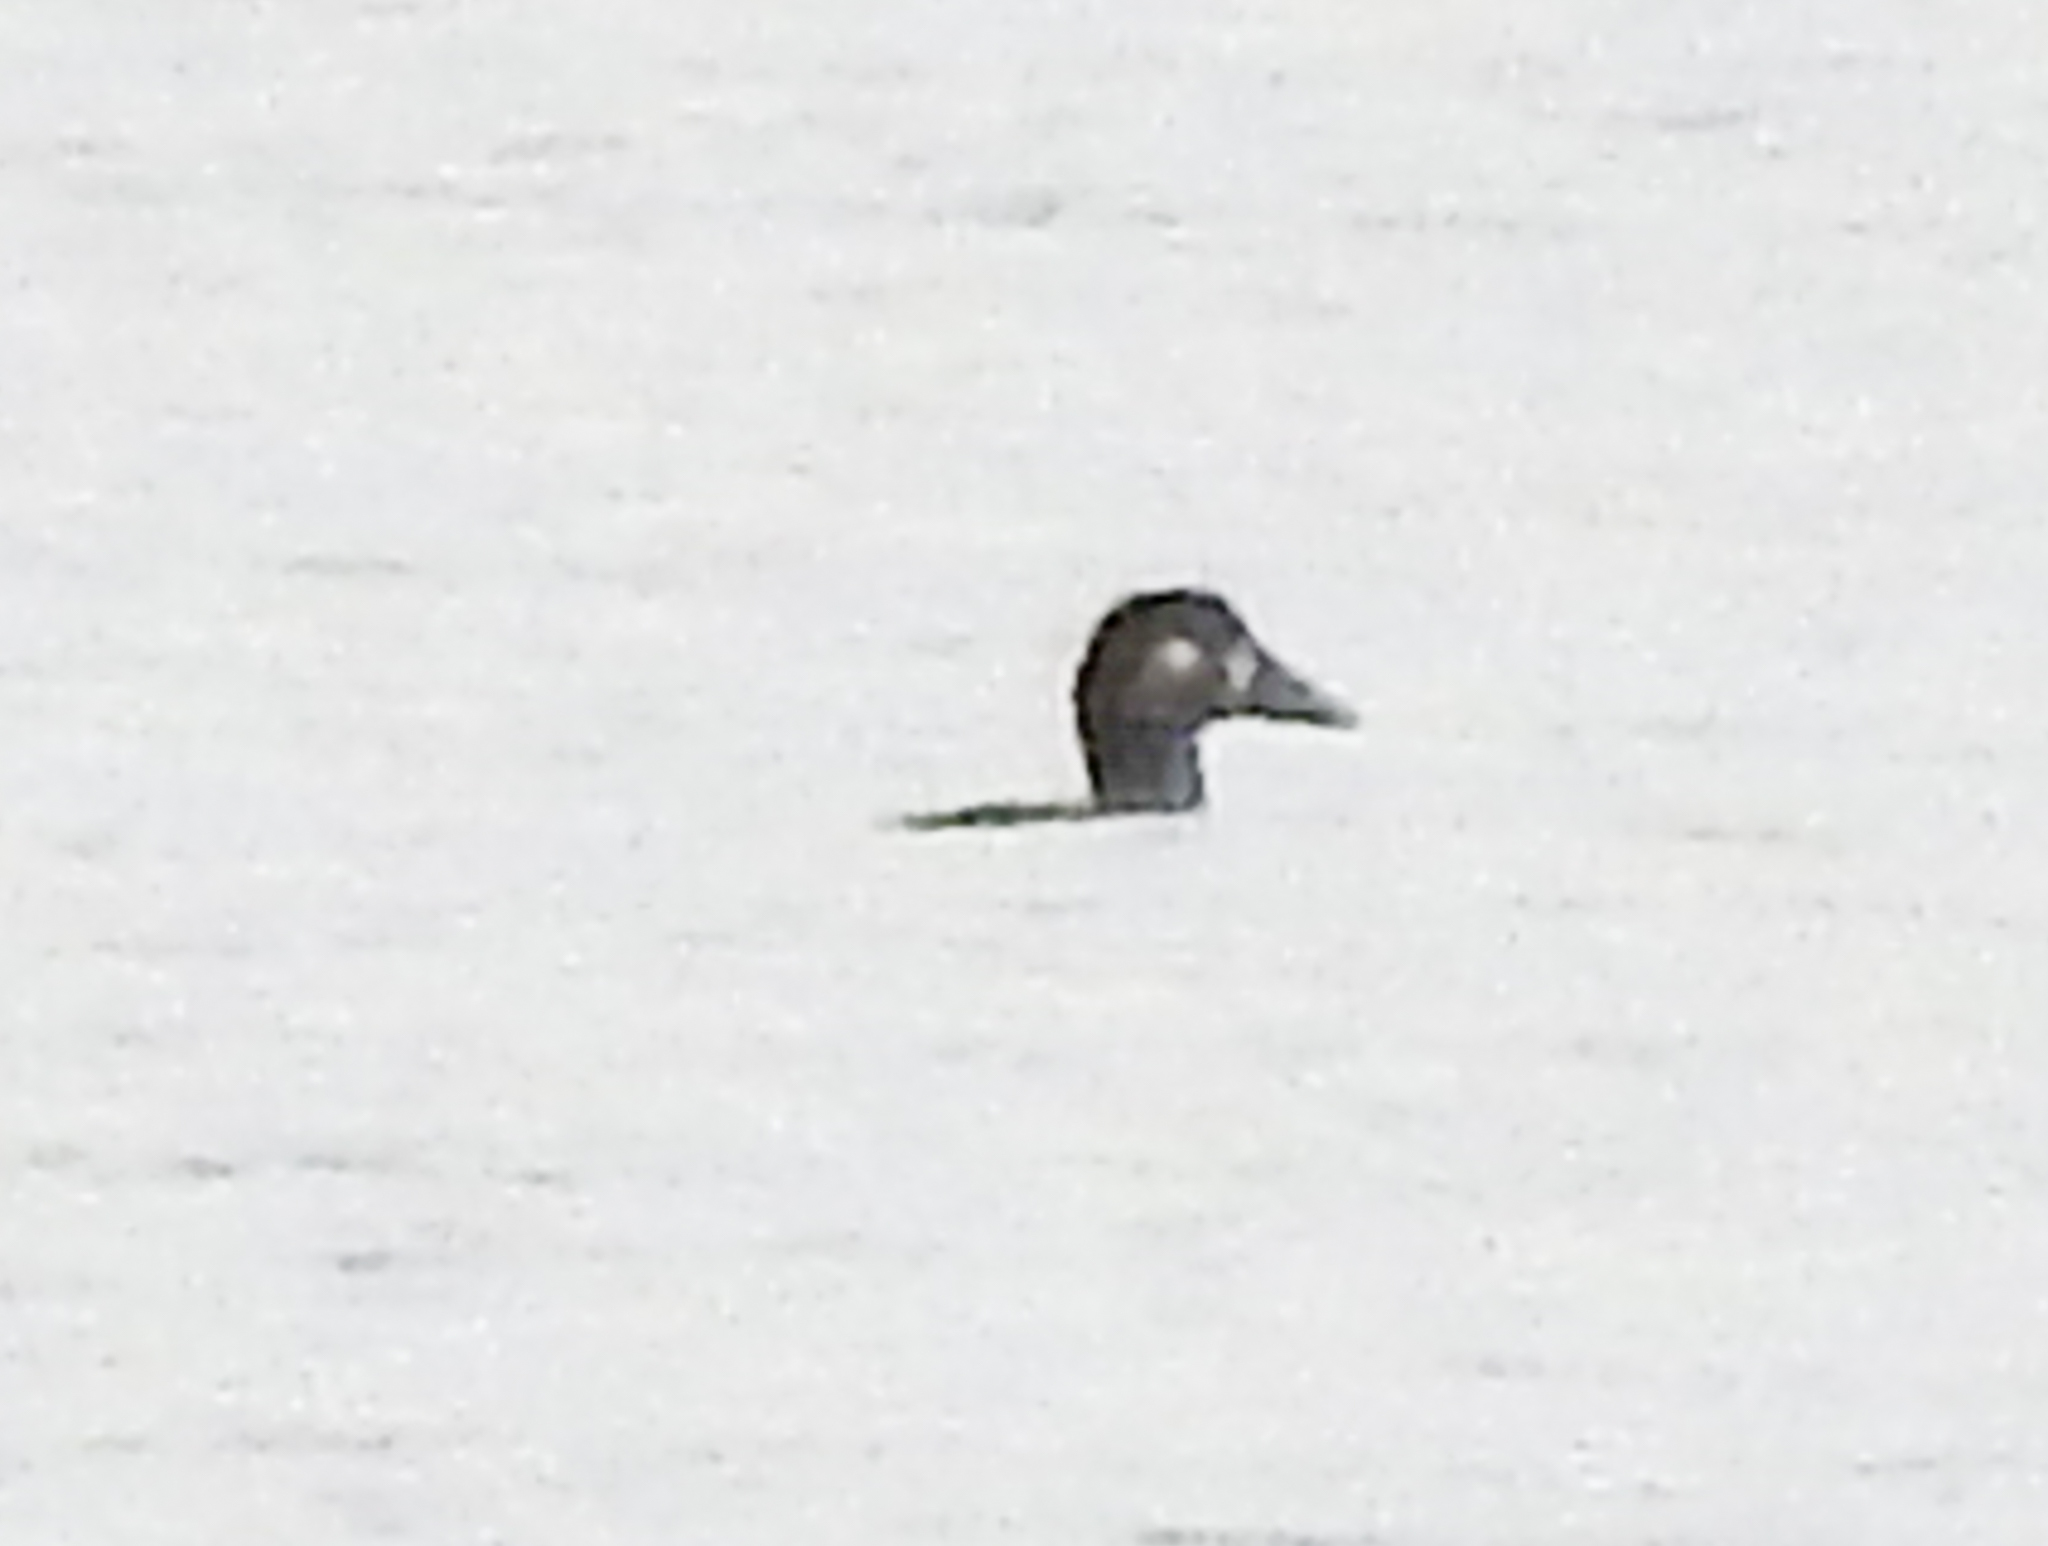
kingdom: Animalia
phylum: Chordata
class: Aves
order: Anseriformes
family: Anatidae
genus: Melanitta
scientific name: Melanitta perspicillata
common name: Surf scoter
